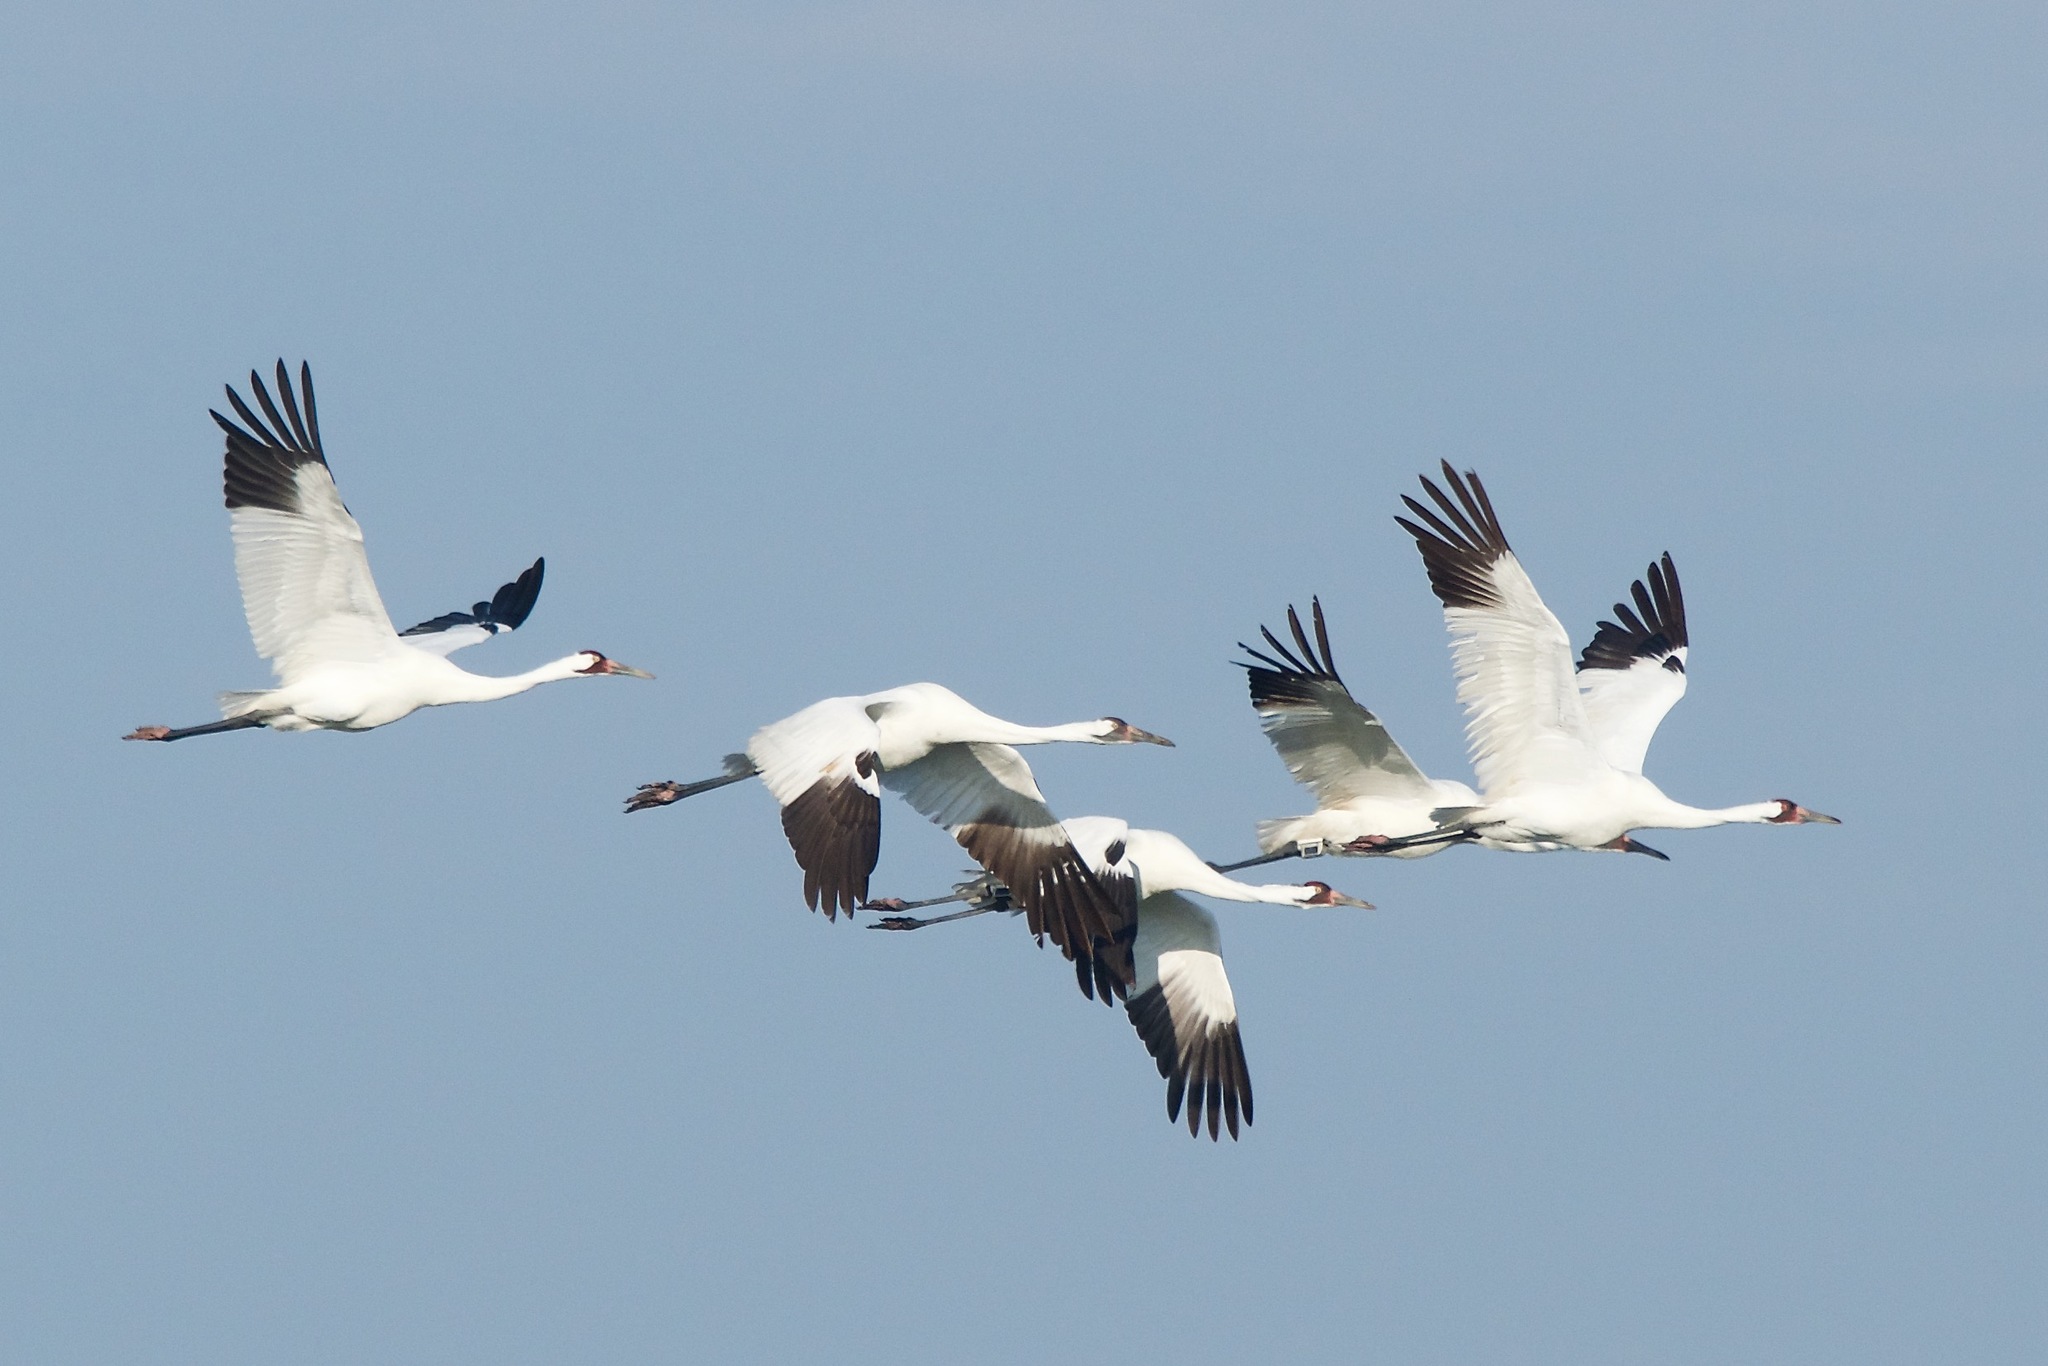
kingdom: Animalia
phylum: Chordata
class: Aves
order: Gruiformes
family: Gruidae
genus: Grus
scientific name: Grus americana
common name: Whooping crane
